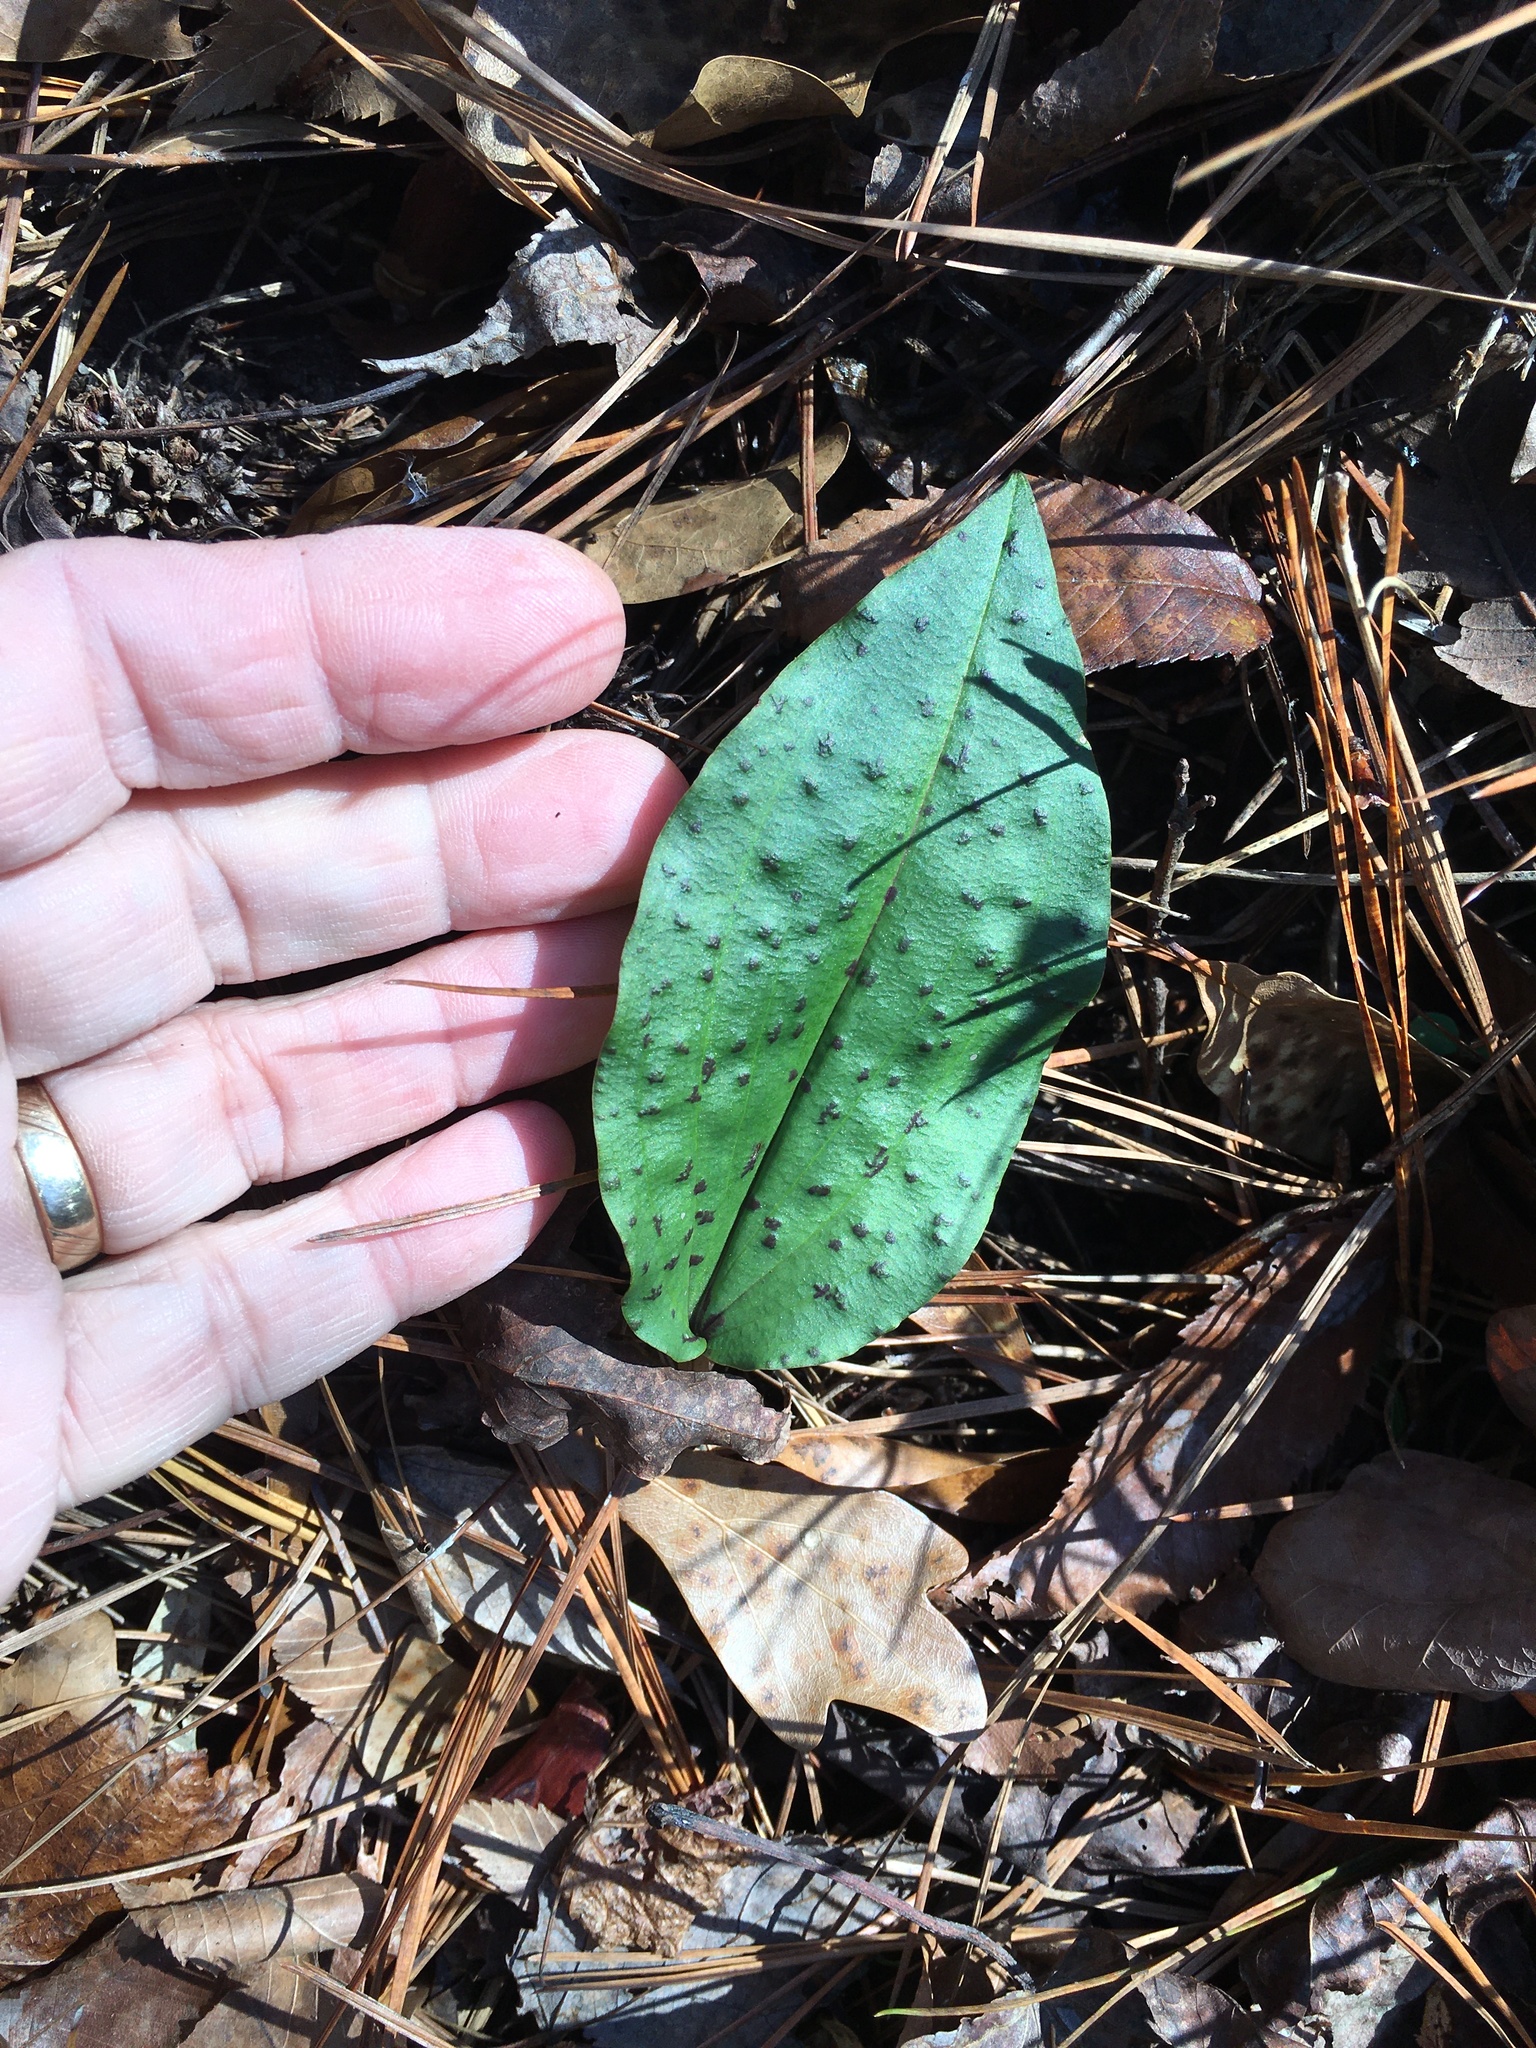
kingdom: Plantae
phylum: Tracheophyta
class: Liliopsida
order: Asparagales
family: Orchidaceae
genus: Tipularia
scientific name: Tipularia discolor
